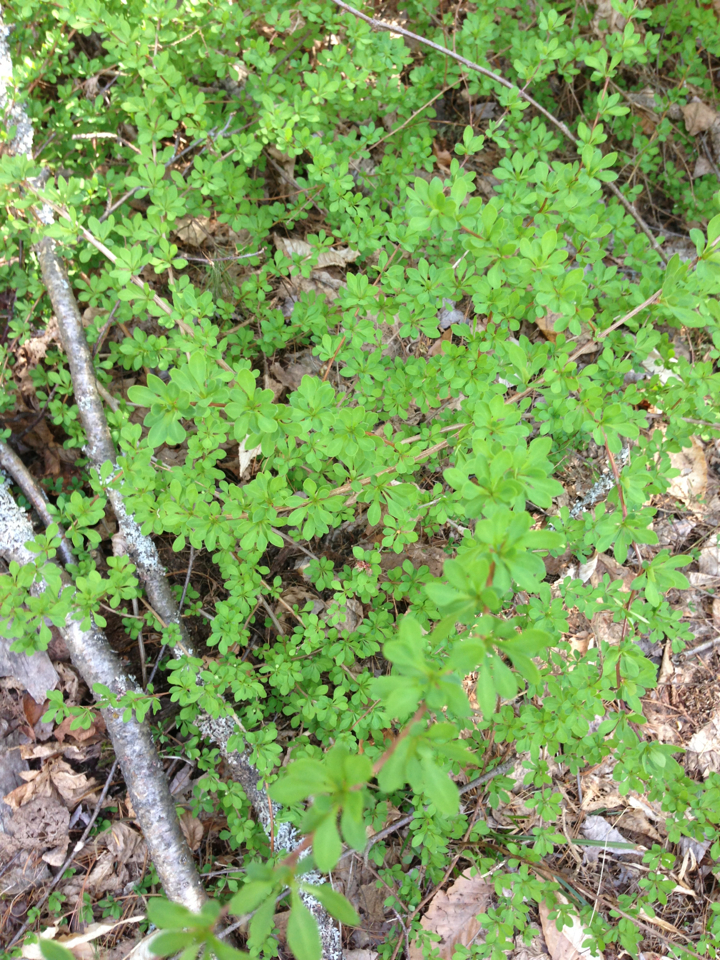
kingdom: Plantae
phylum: Tracheophyta
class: Magnoliopsida
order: Ranunculales
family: Berberidaceae
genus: Berberis
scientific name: Berberis thunbergii
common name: Japanese barberry
